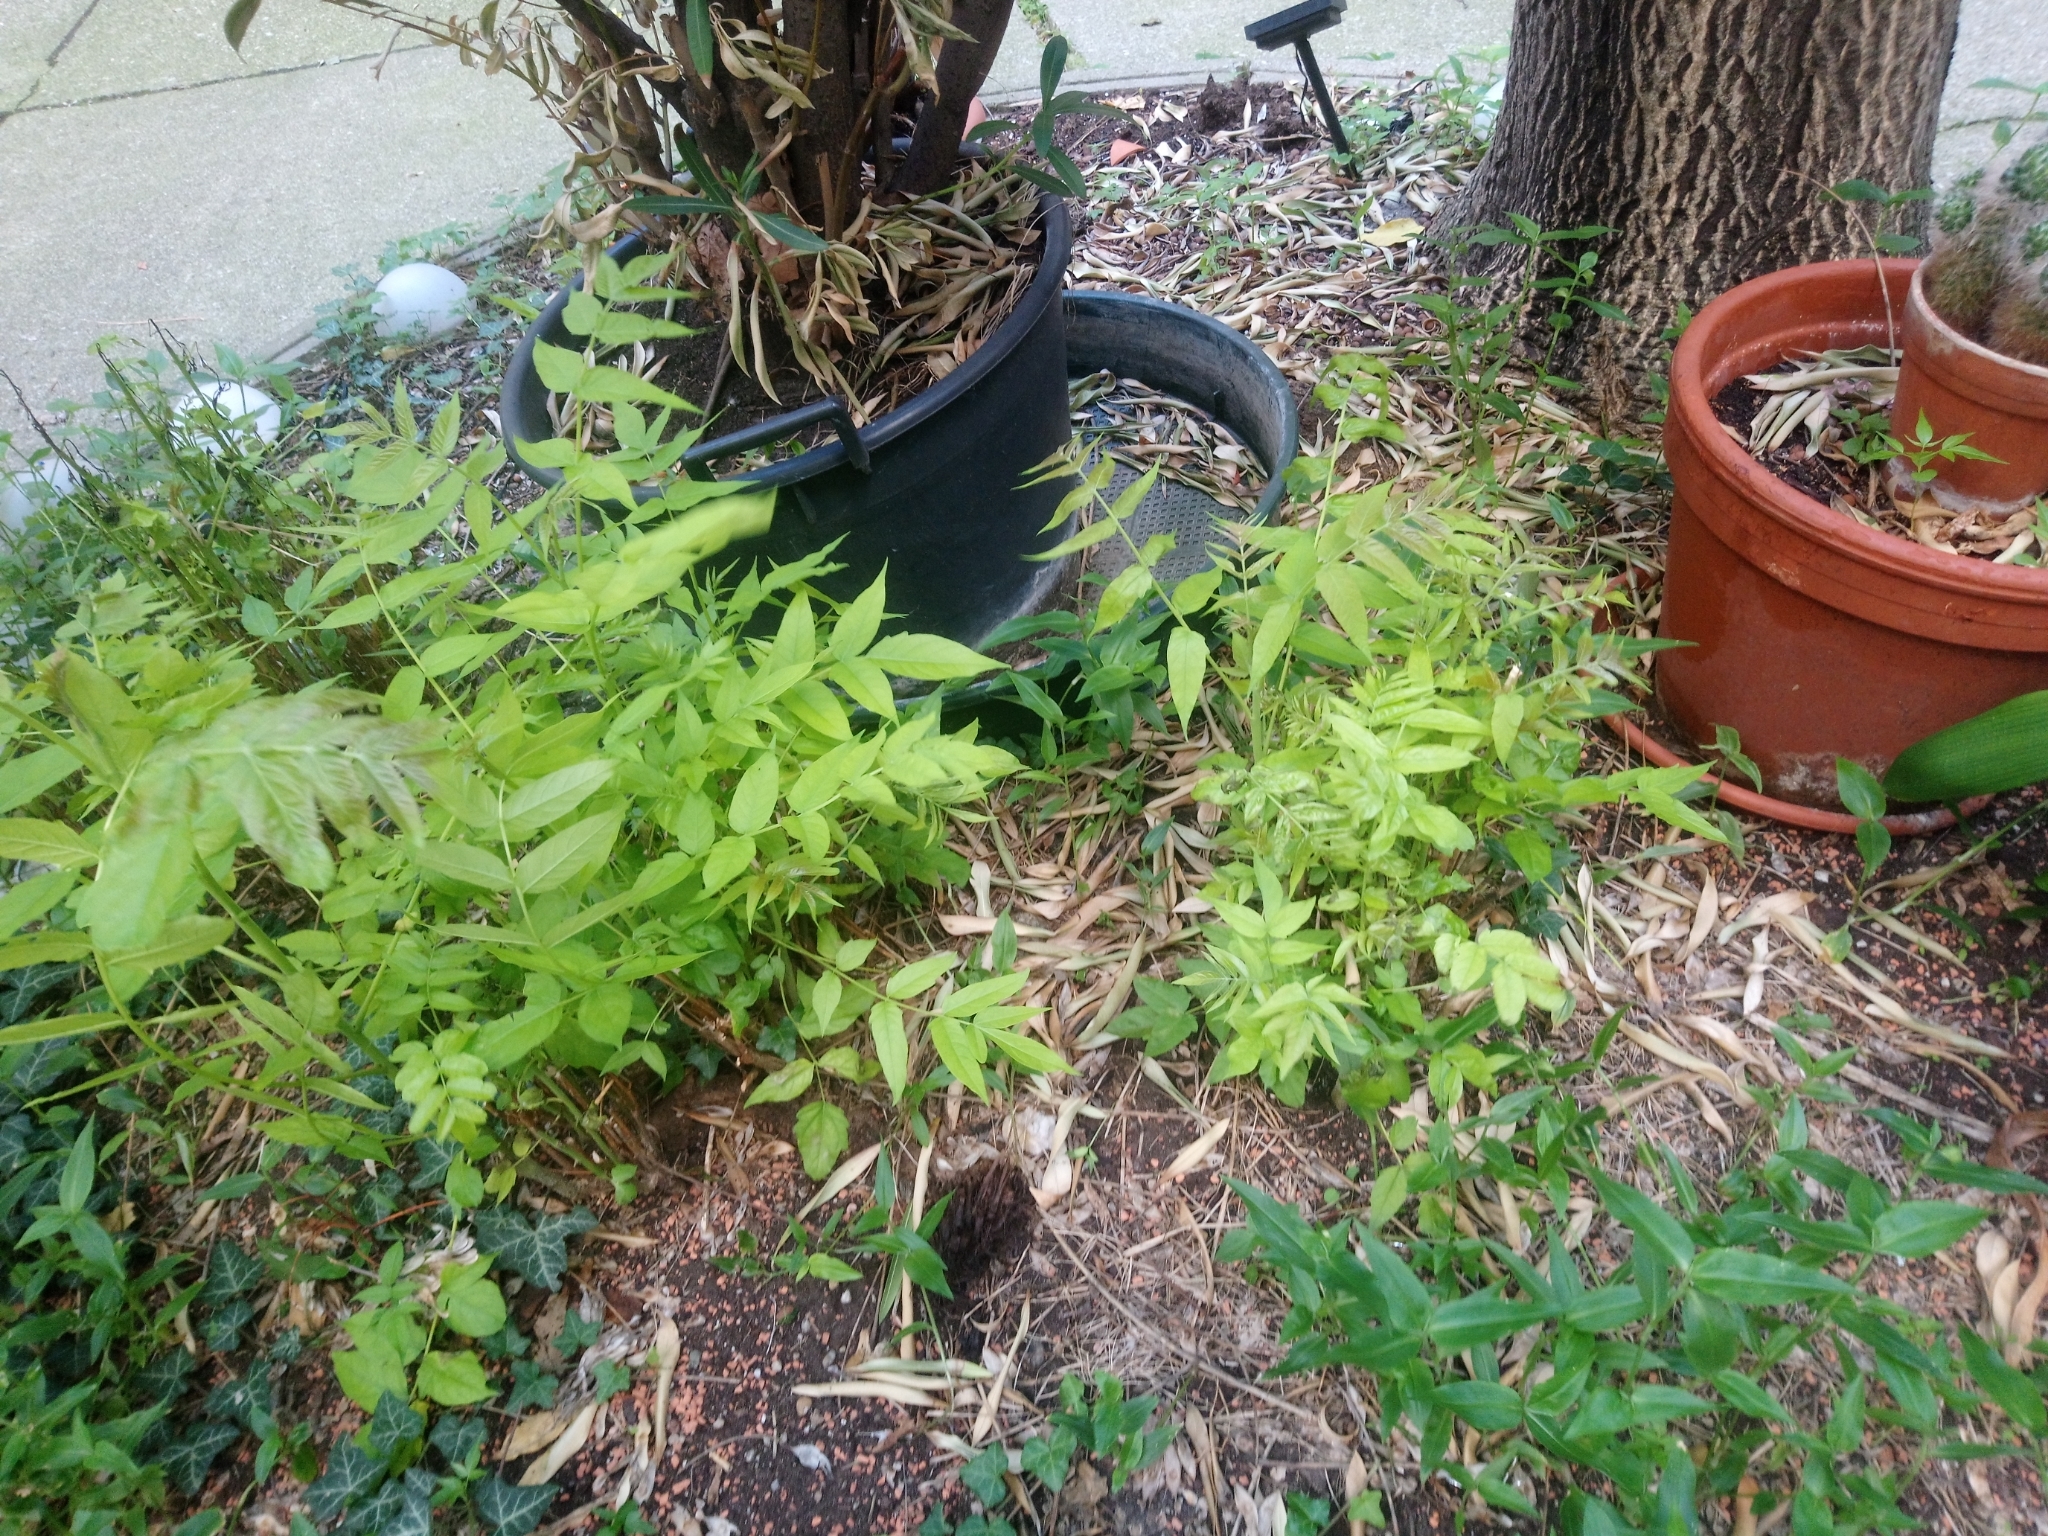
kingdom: Plantae
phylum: Tracheophyta
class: Magnoliopsida
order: Sapindales
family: Simaroubaceae
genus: Ailanthus
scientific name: Ailanthus altissima
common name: Tree-of-heaven
